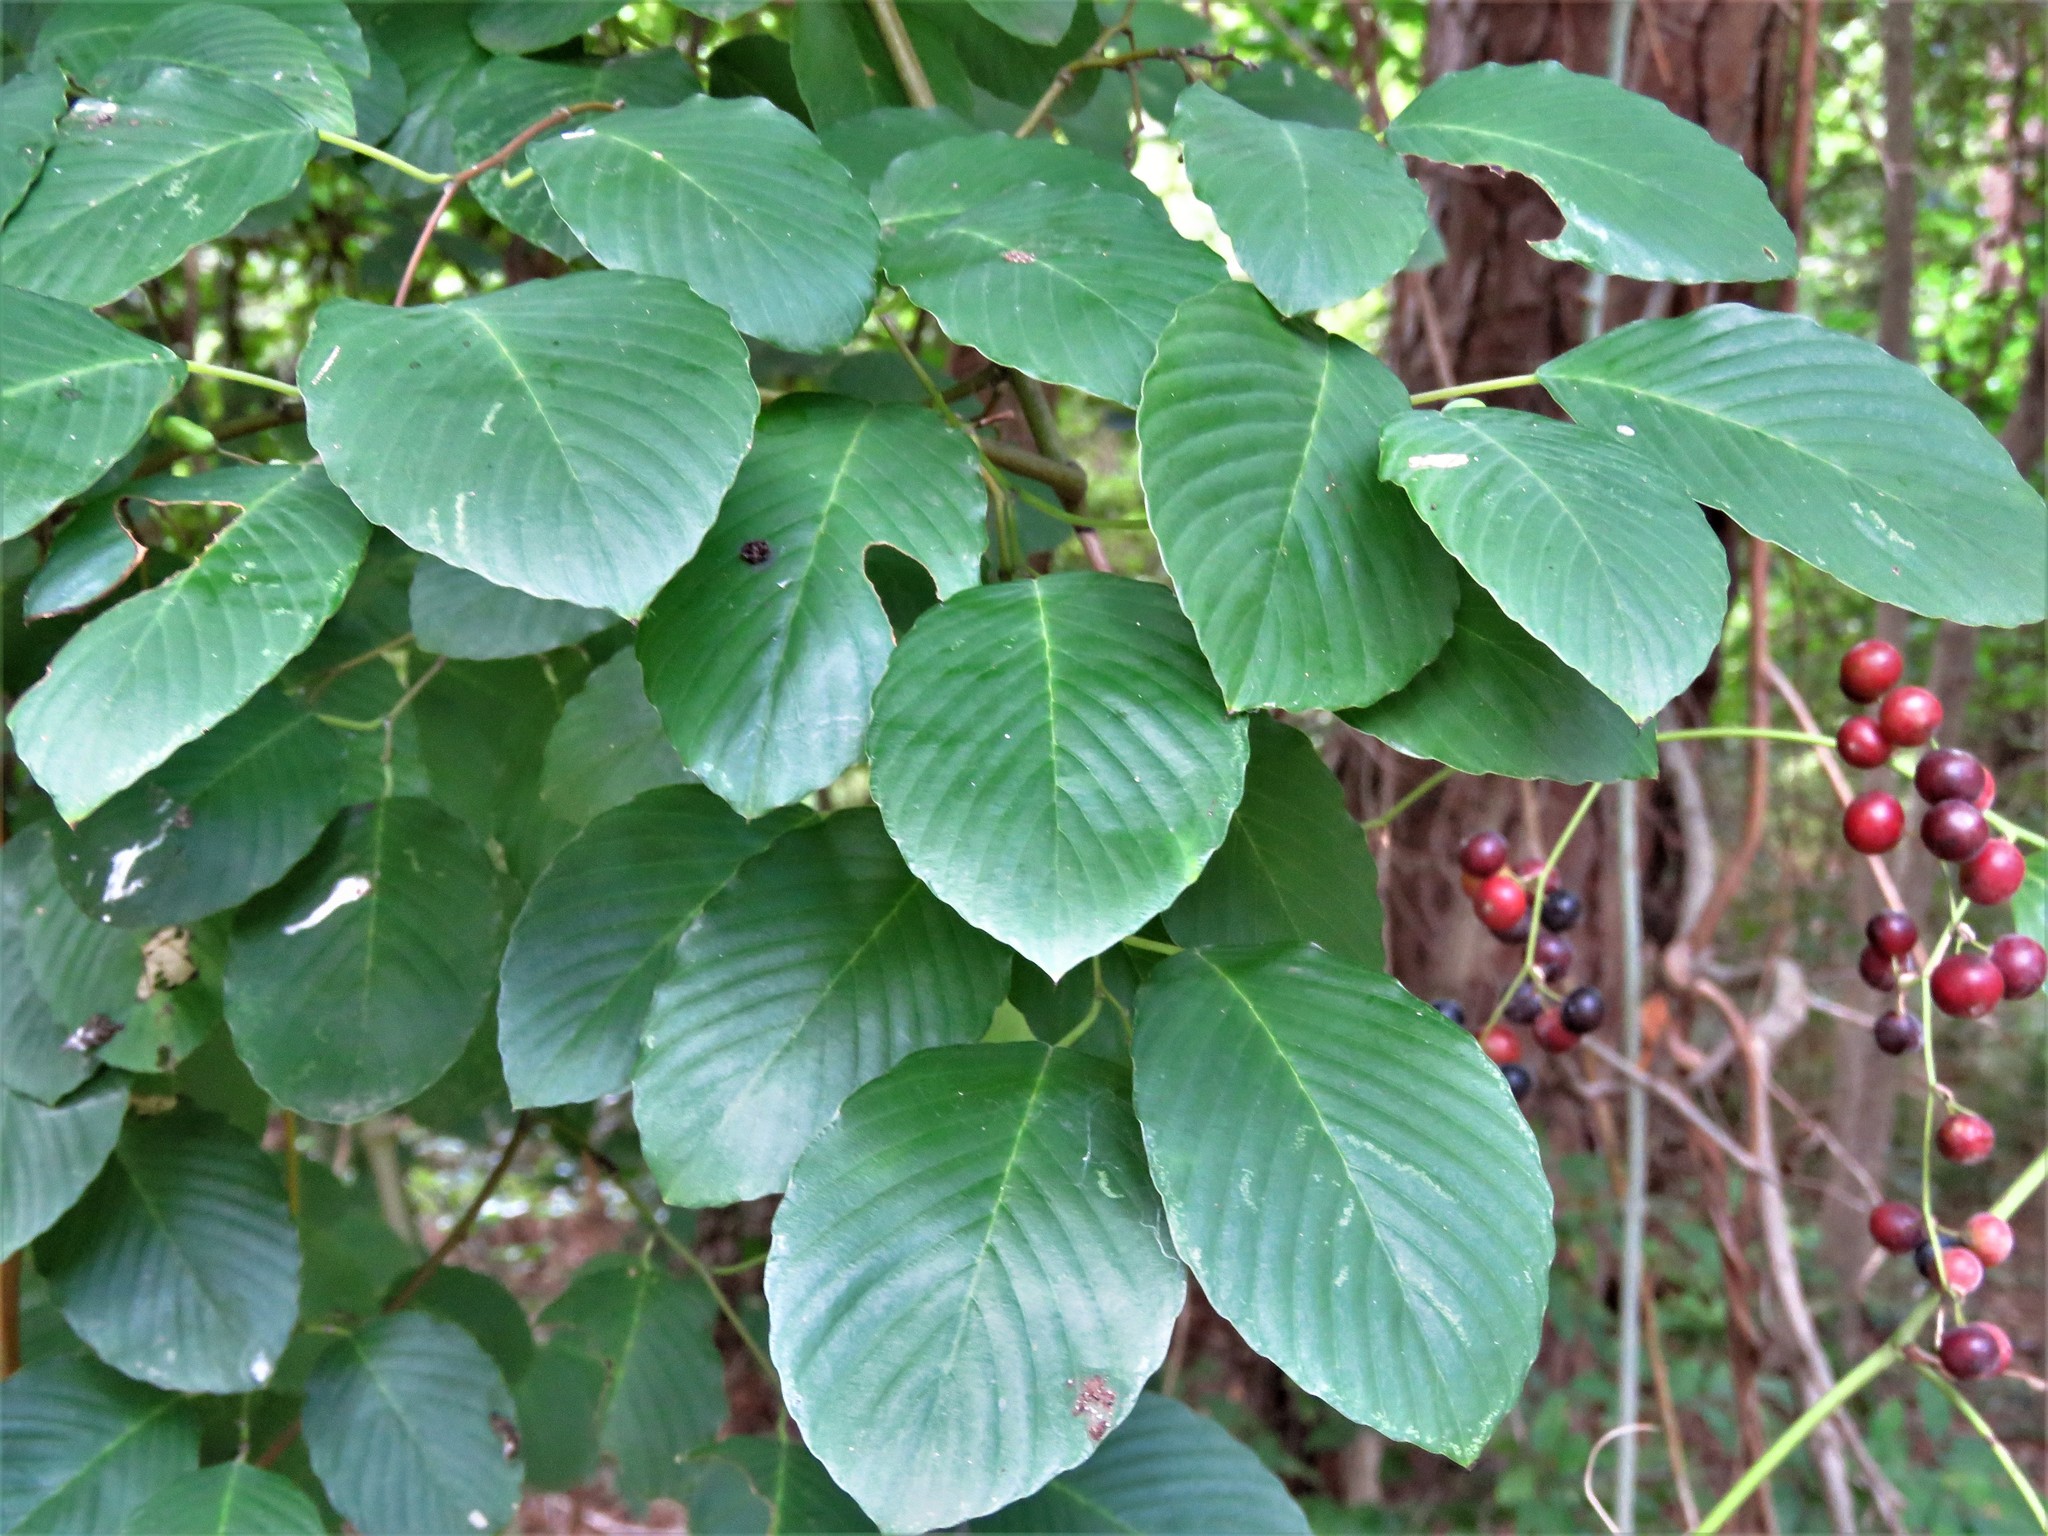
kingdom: Plantae
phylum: Tracheophyta
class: Magnoliopsida
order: Rosales
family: Rhamnaceae
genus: Berchemia
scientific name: Berchemia scandens
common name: Supplejack
